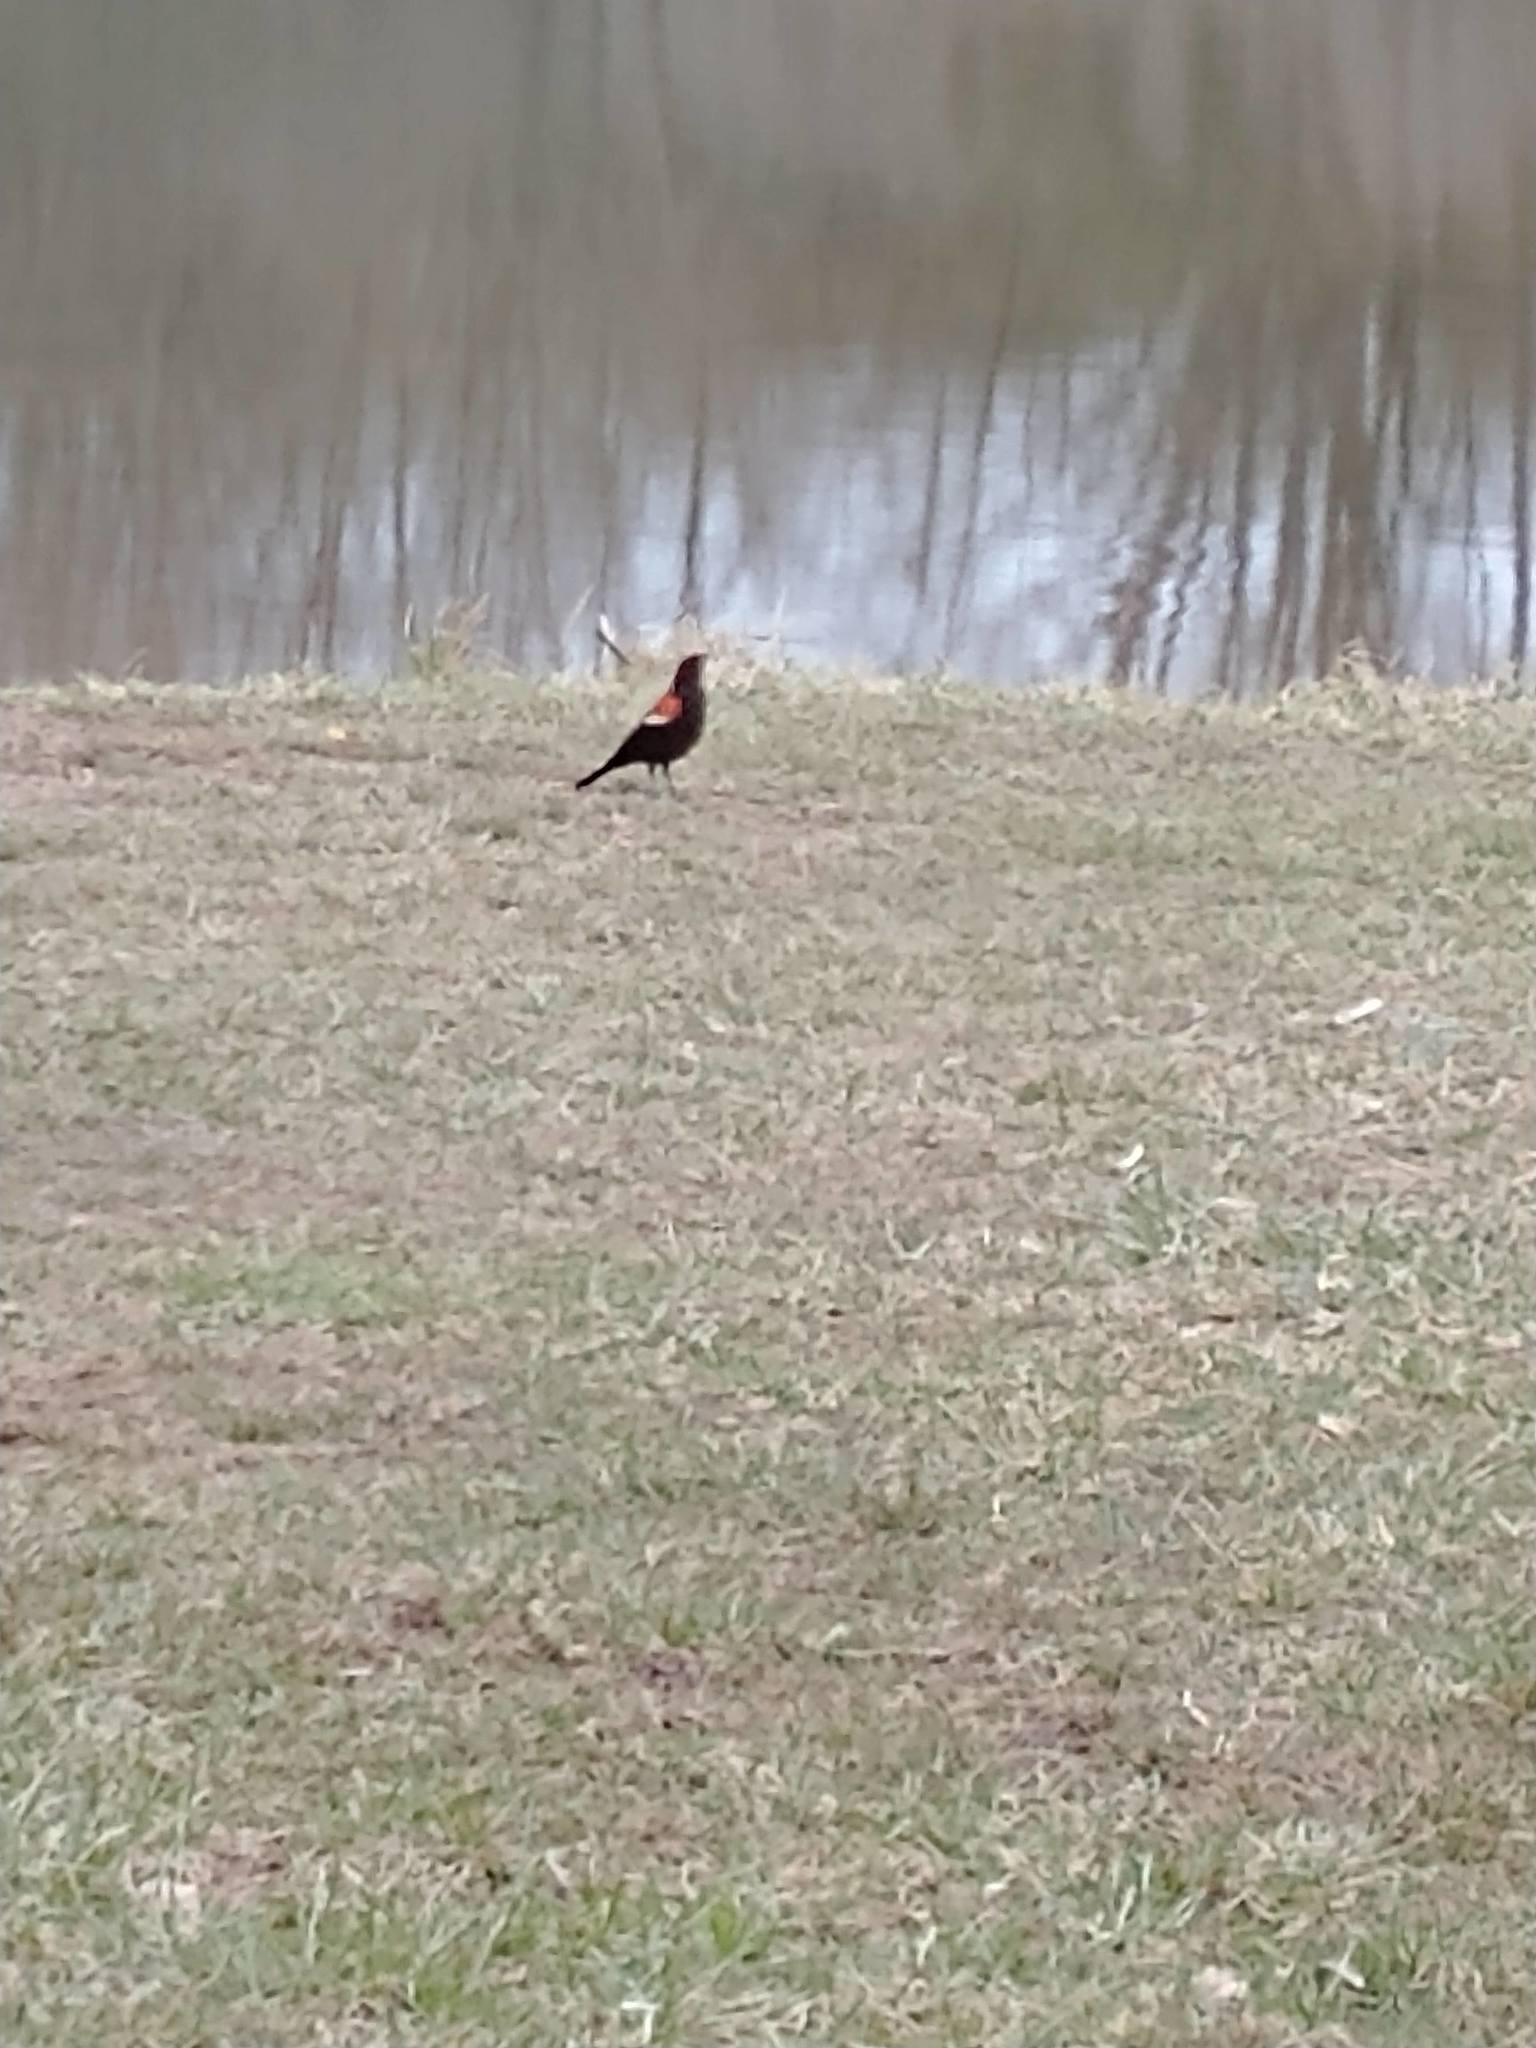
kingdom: Animalia
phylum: Chordata
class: Aves
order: Passeriformes
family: Icteridae
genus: Agelaius
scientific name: Agelaius phoeniceus
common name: Red-winged blackbird
